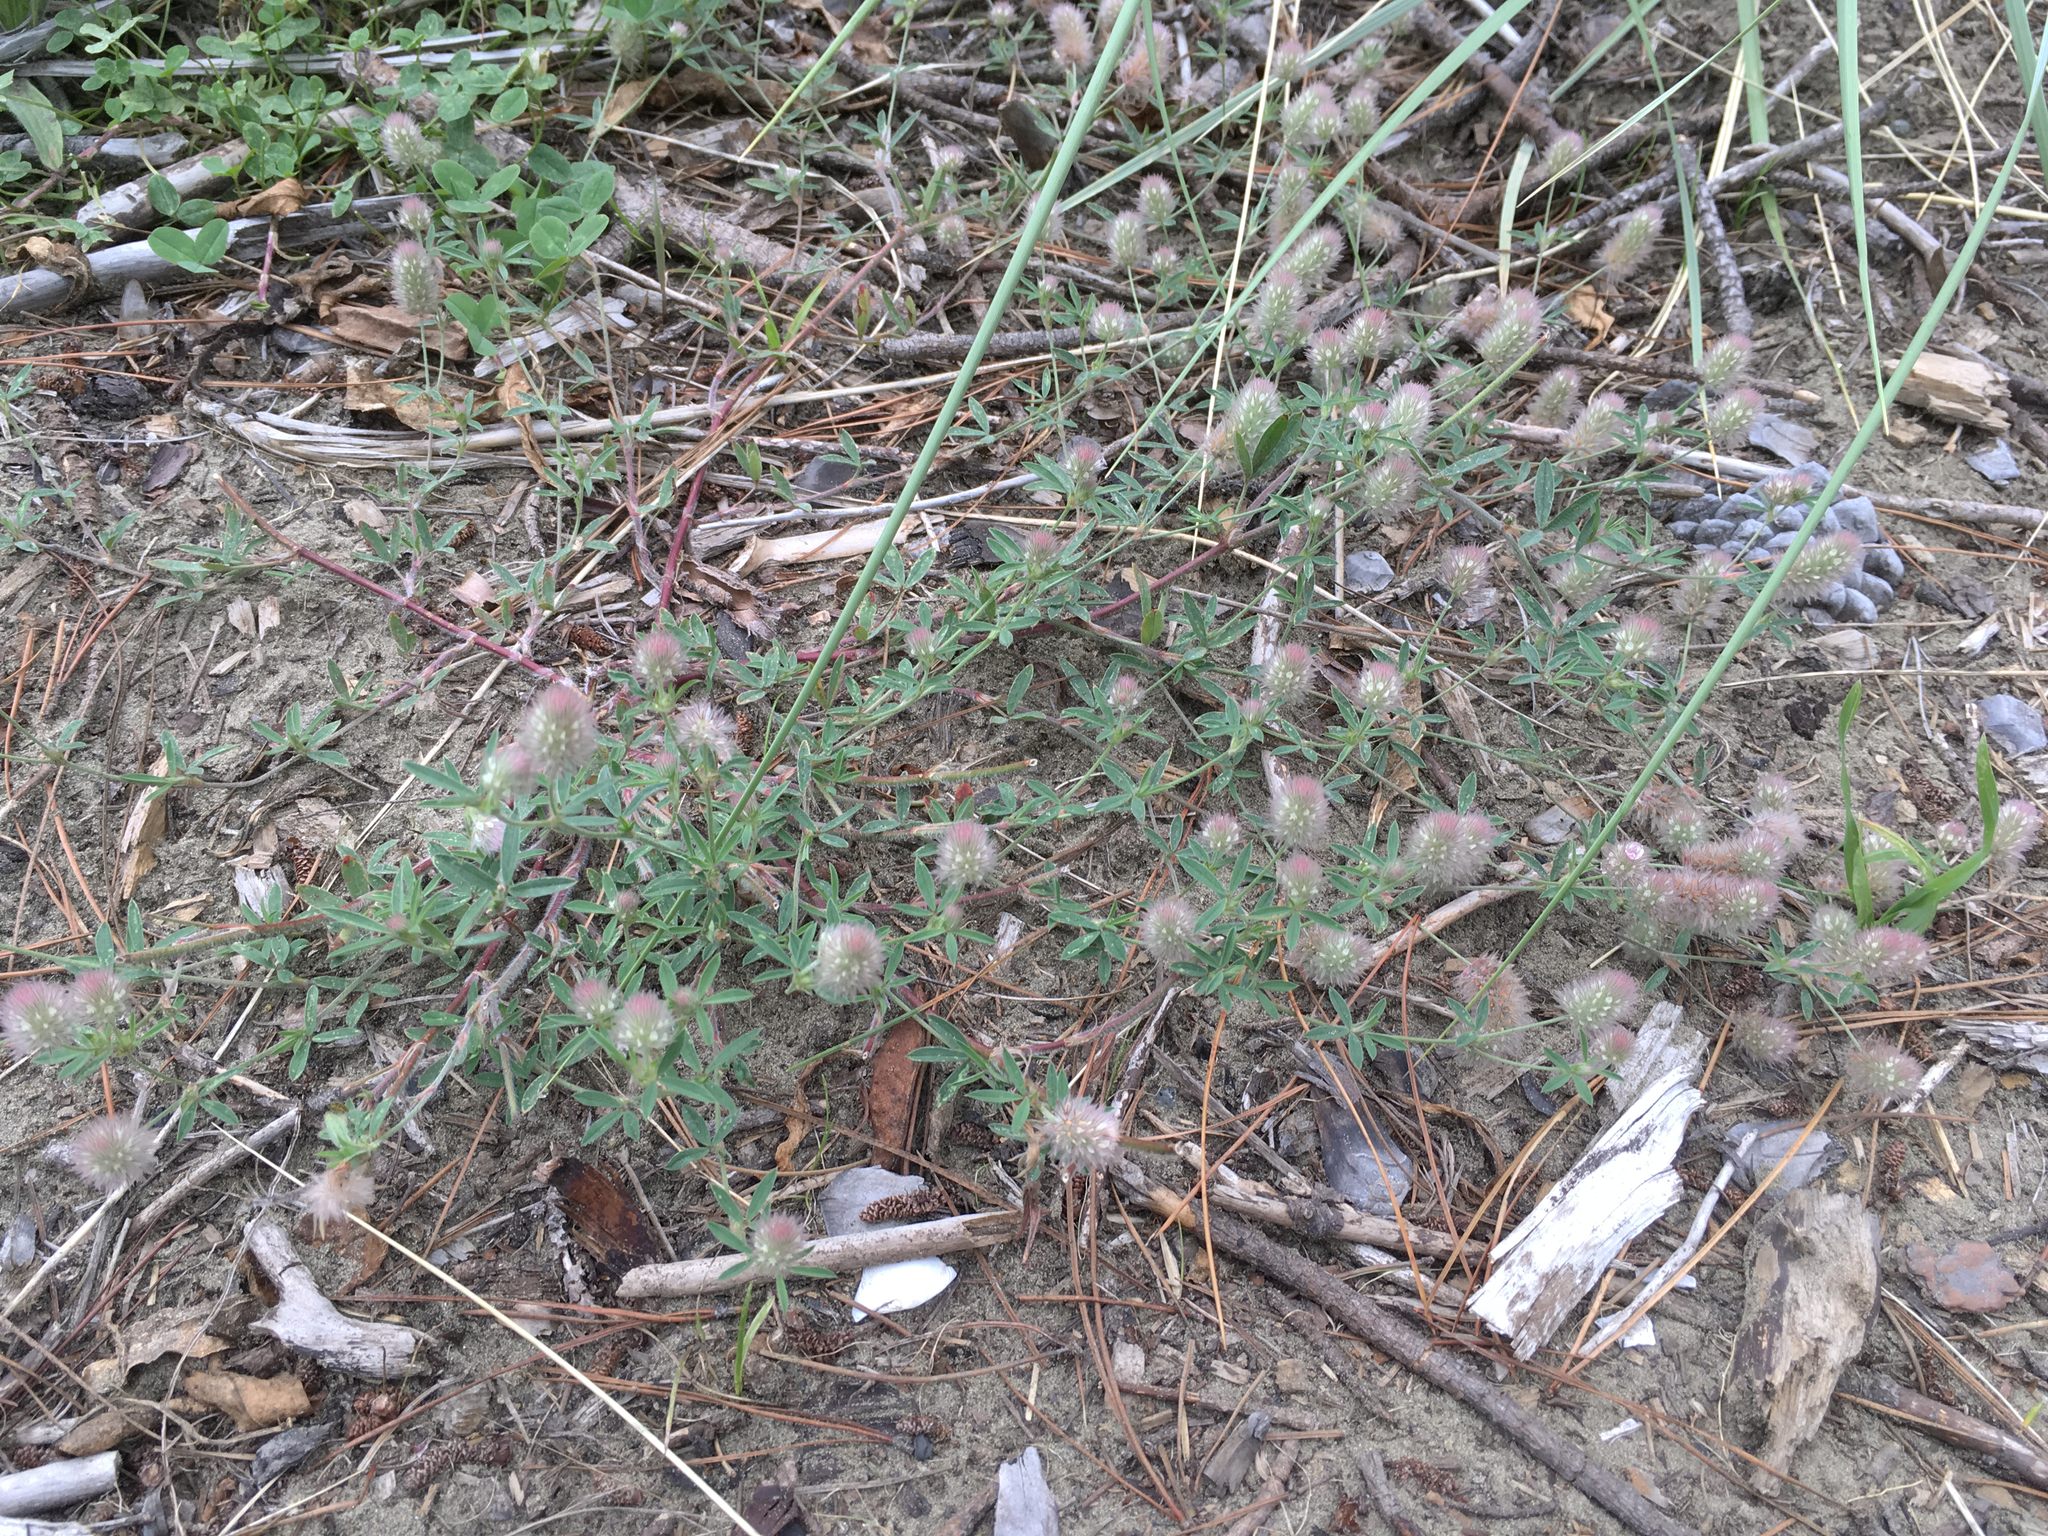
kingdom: Plantae
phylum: Tracheophyta
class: Magnoliopsida
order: Fabales
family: Fabaceae
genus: Trifolium
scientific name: Trifolium arvense
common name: Hare's-foot clover
